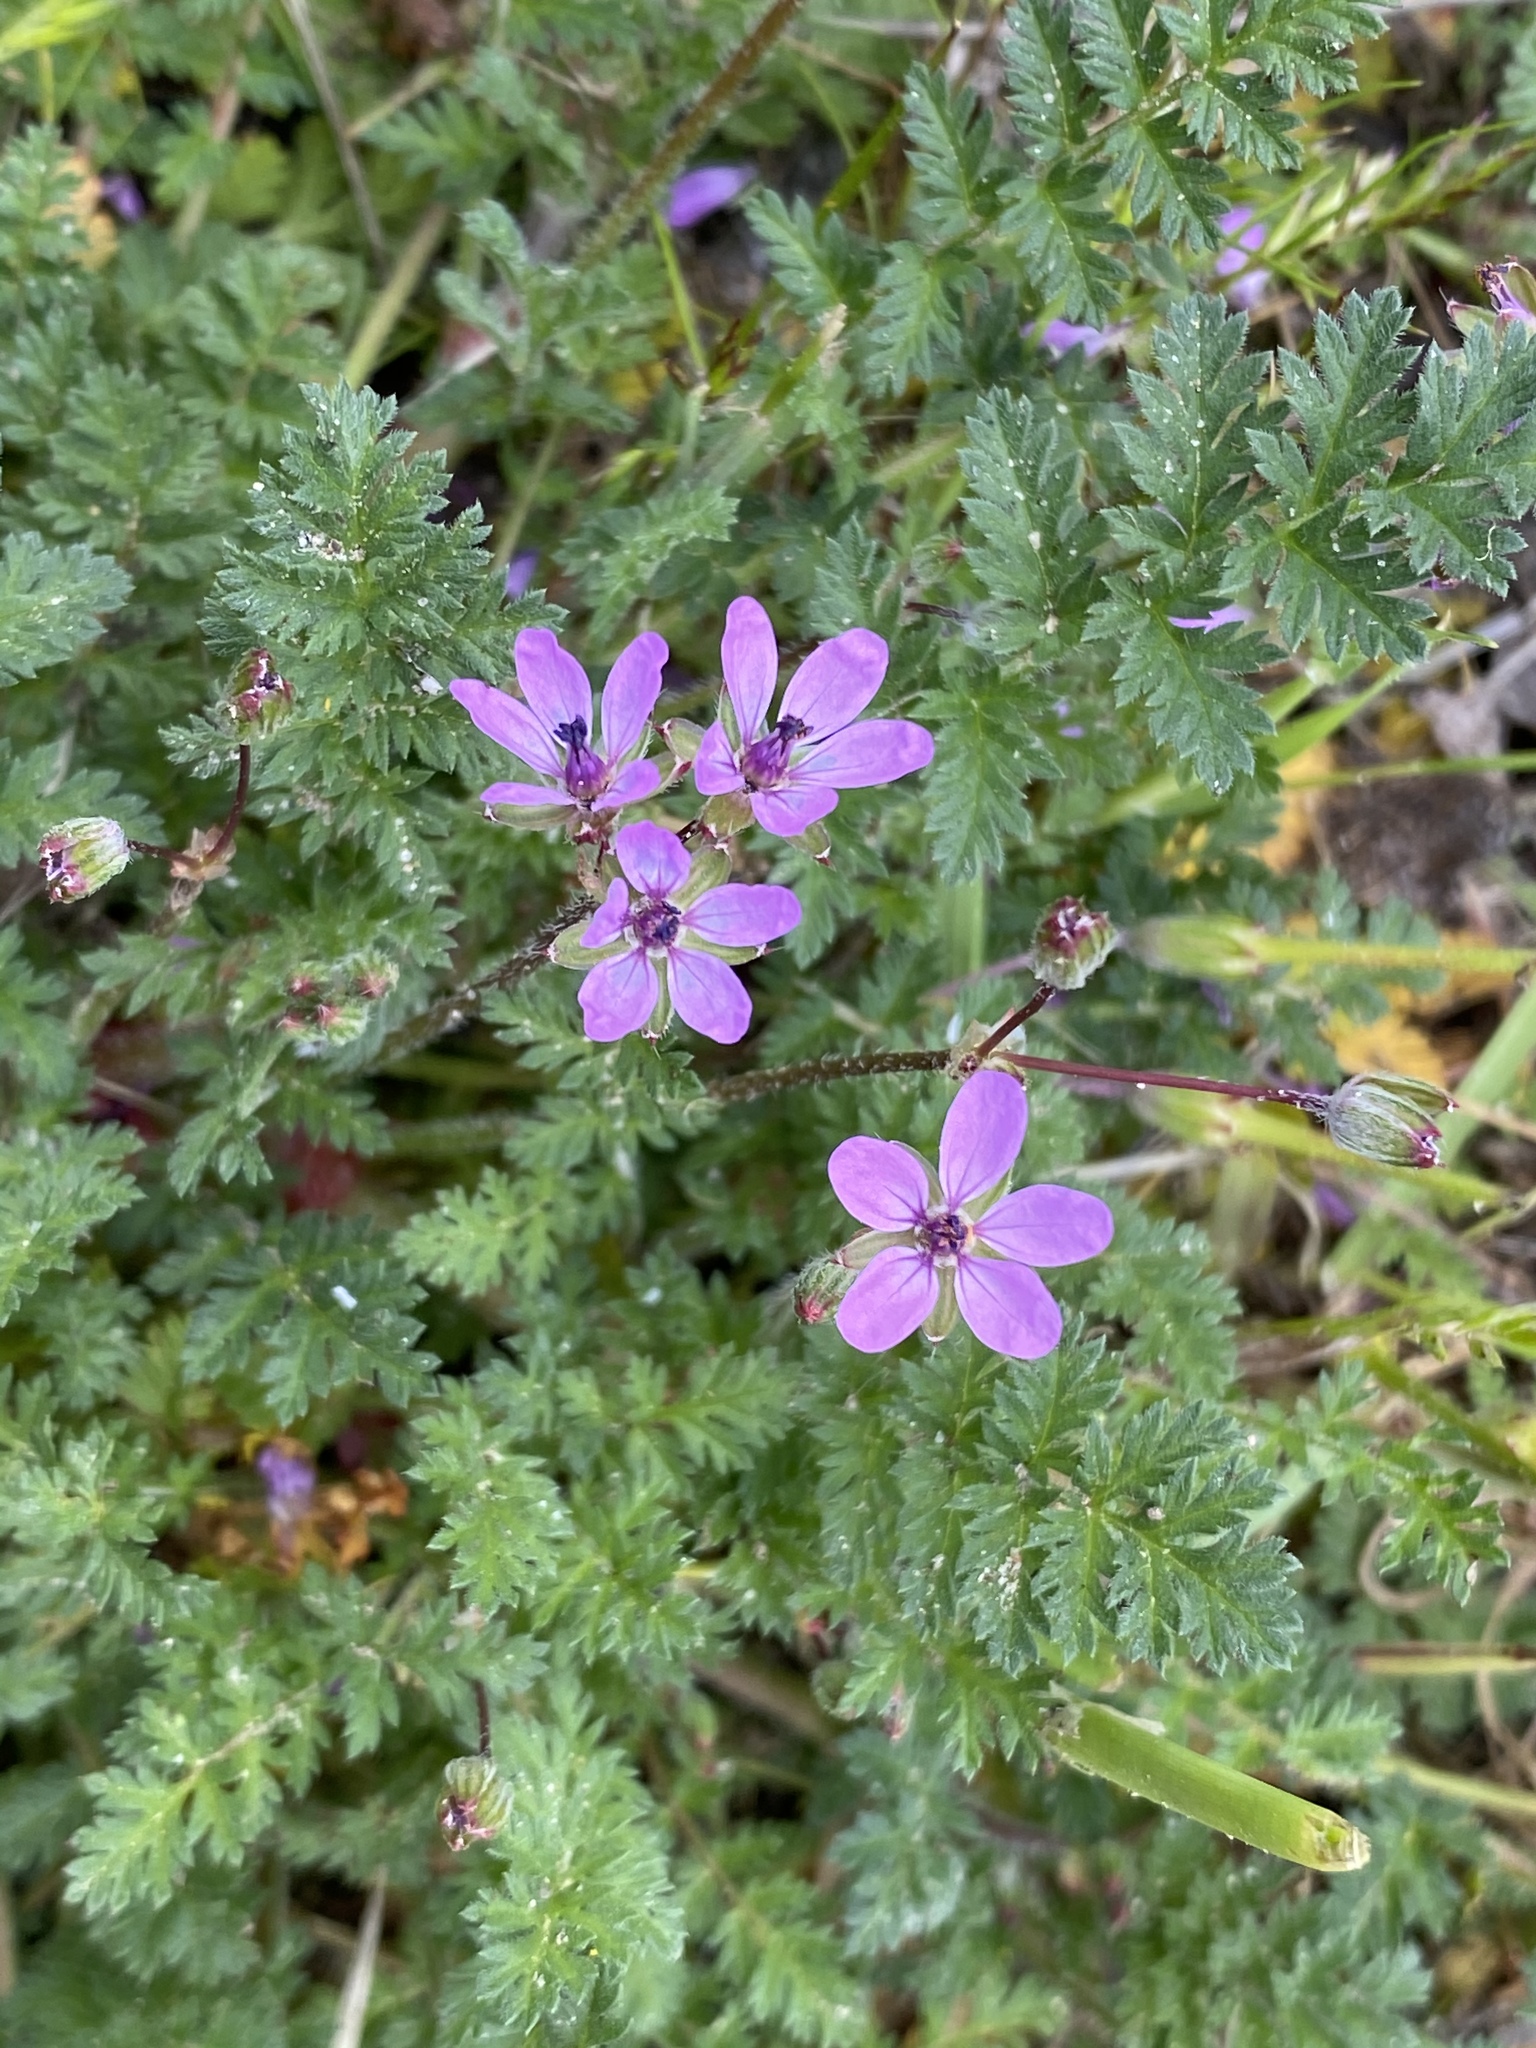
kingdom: Plantae
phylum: Tracheophyta
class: Magnoliopsida
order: Geraniales
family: Geraniaceae
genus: Erodium
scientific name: Erodium cicutarium
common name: Common stork's-bill
